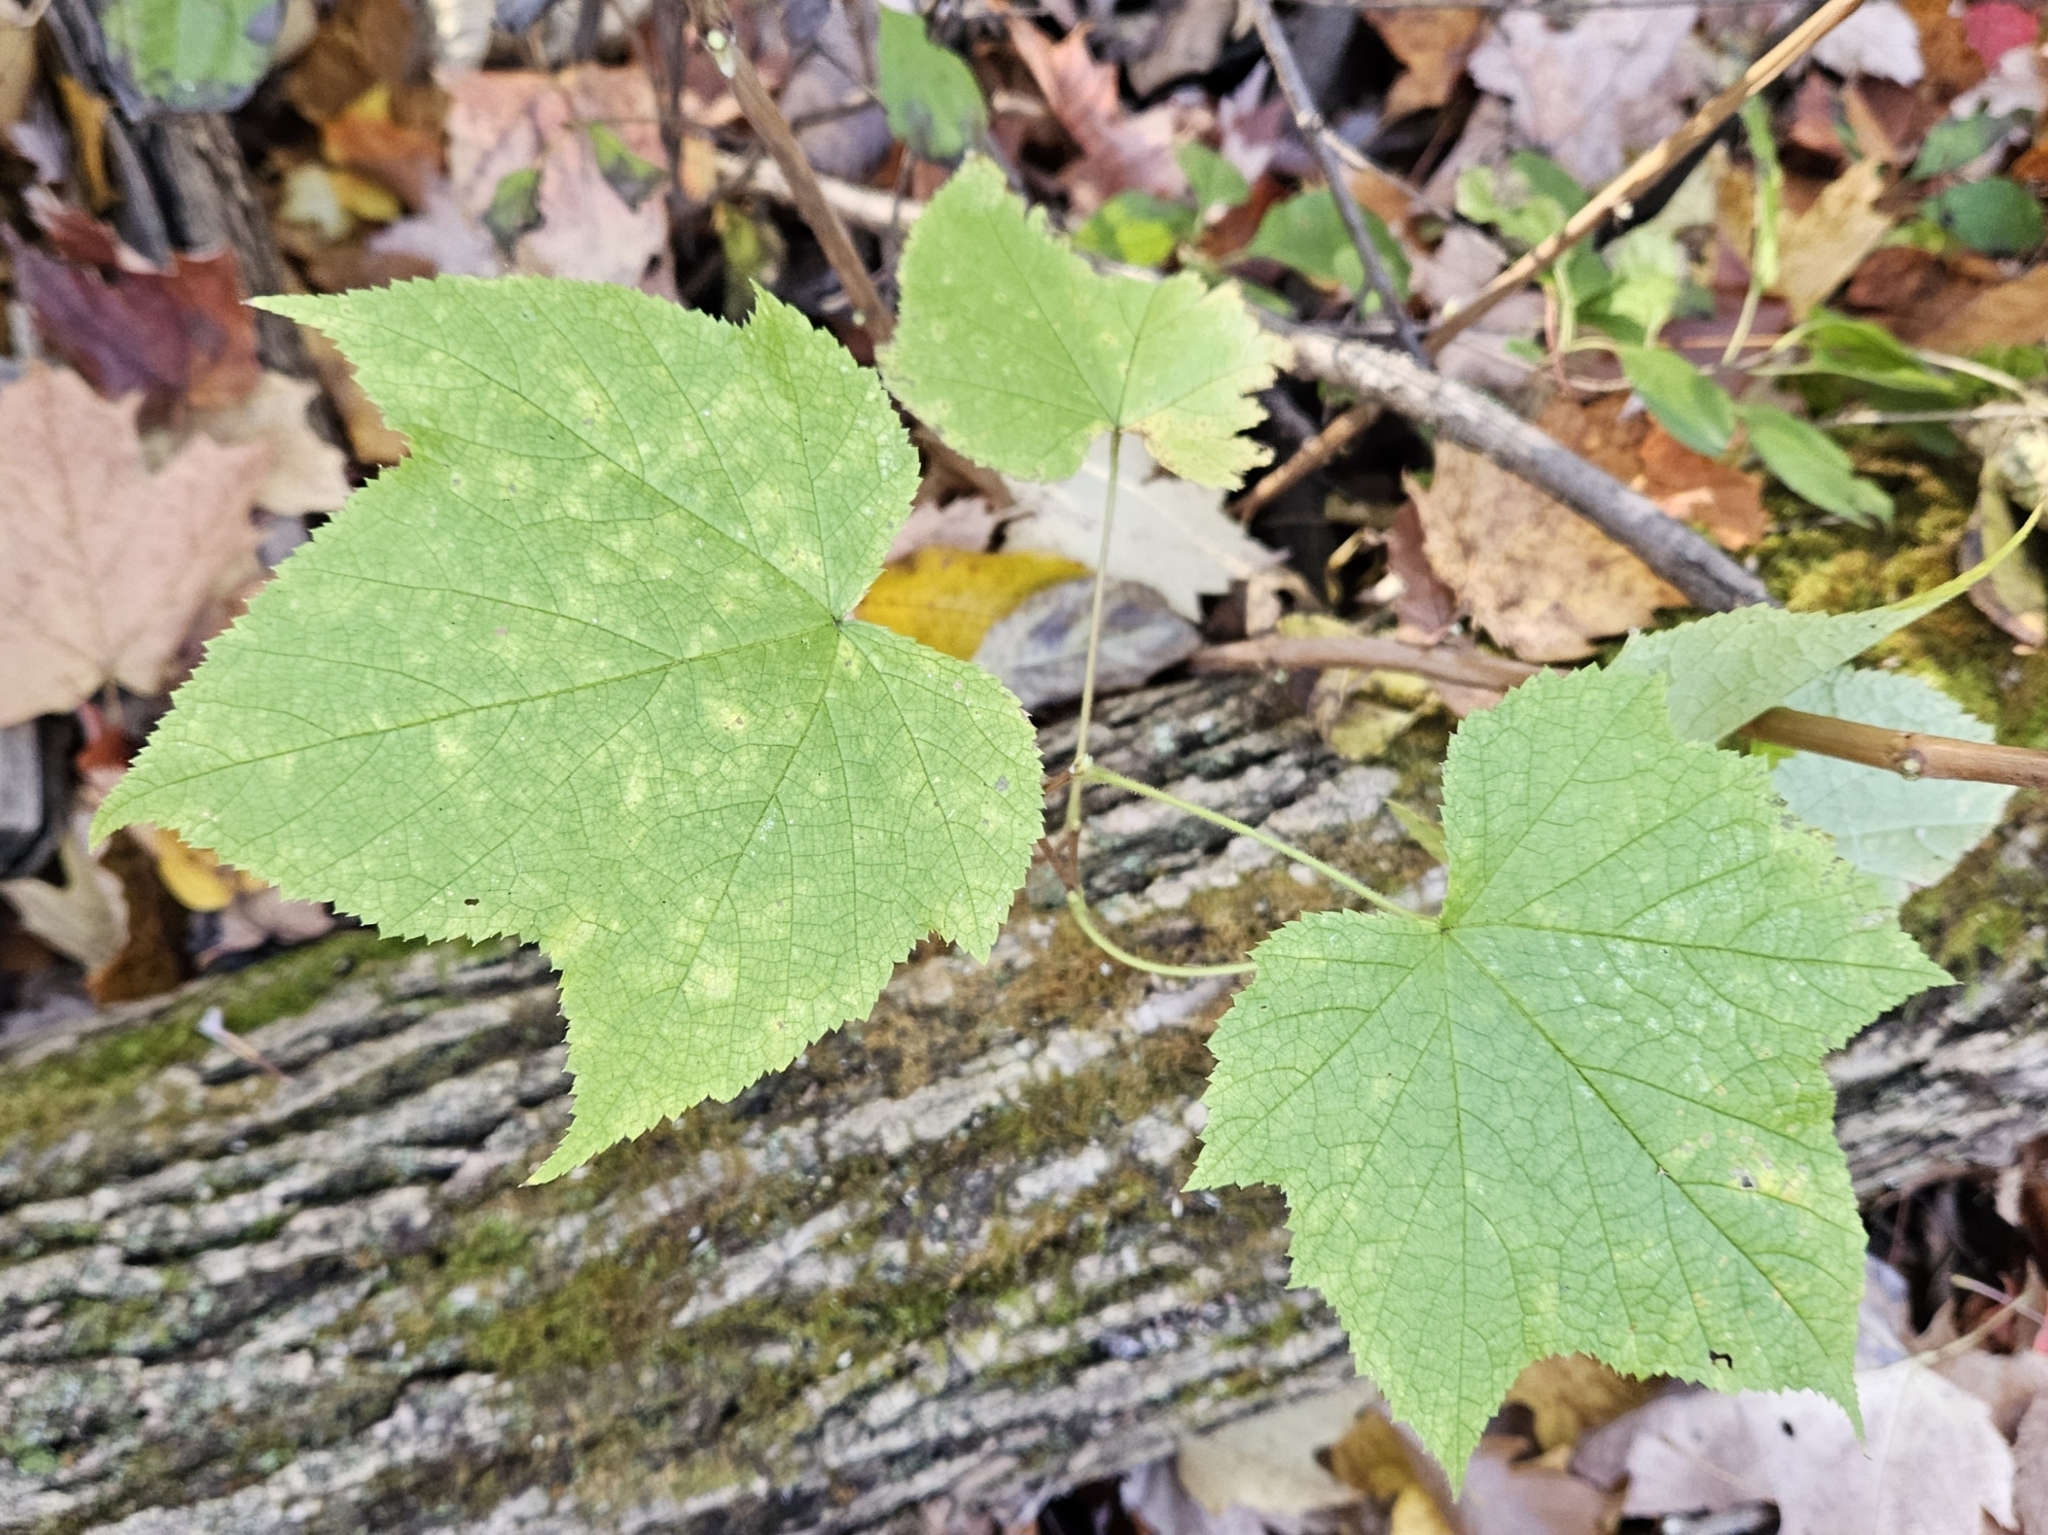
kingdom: Plantae
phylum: Tracheophyta
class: Magnoliopsida
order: Rosales
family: Rosaceae
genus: Rubus
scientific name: Rubus odoratus
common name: Purple-flowered raspberry
